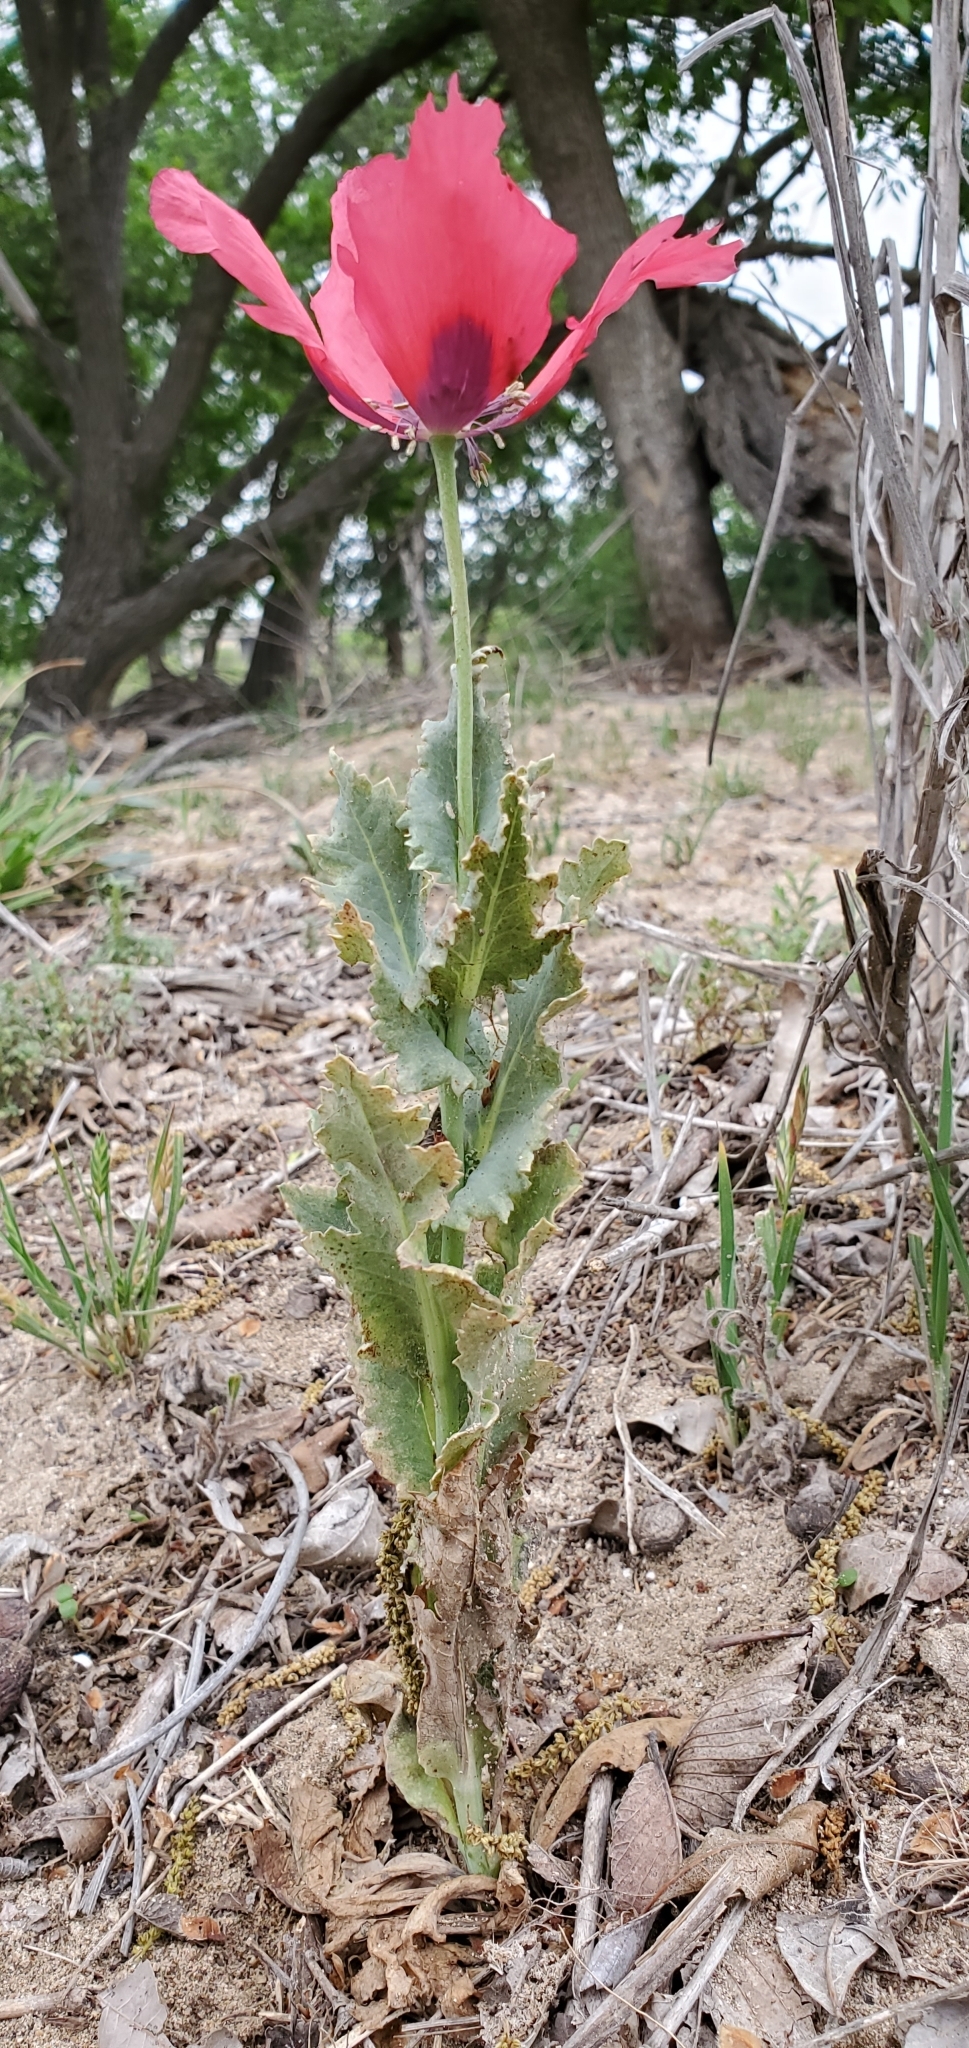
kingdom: Plantae
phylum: Tracheophyta
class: Magnoliopsida
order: Ranunculales
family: Papaveraceae
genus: Papaver
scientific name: Papaver somniferum
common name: Opium poppy
